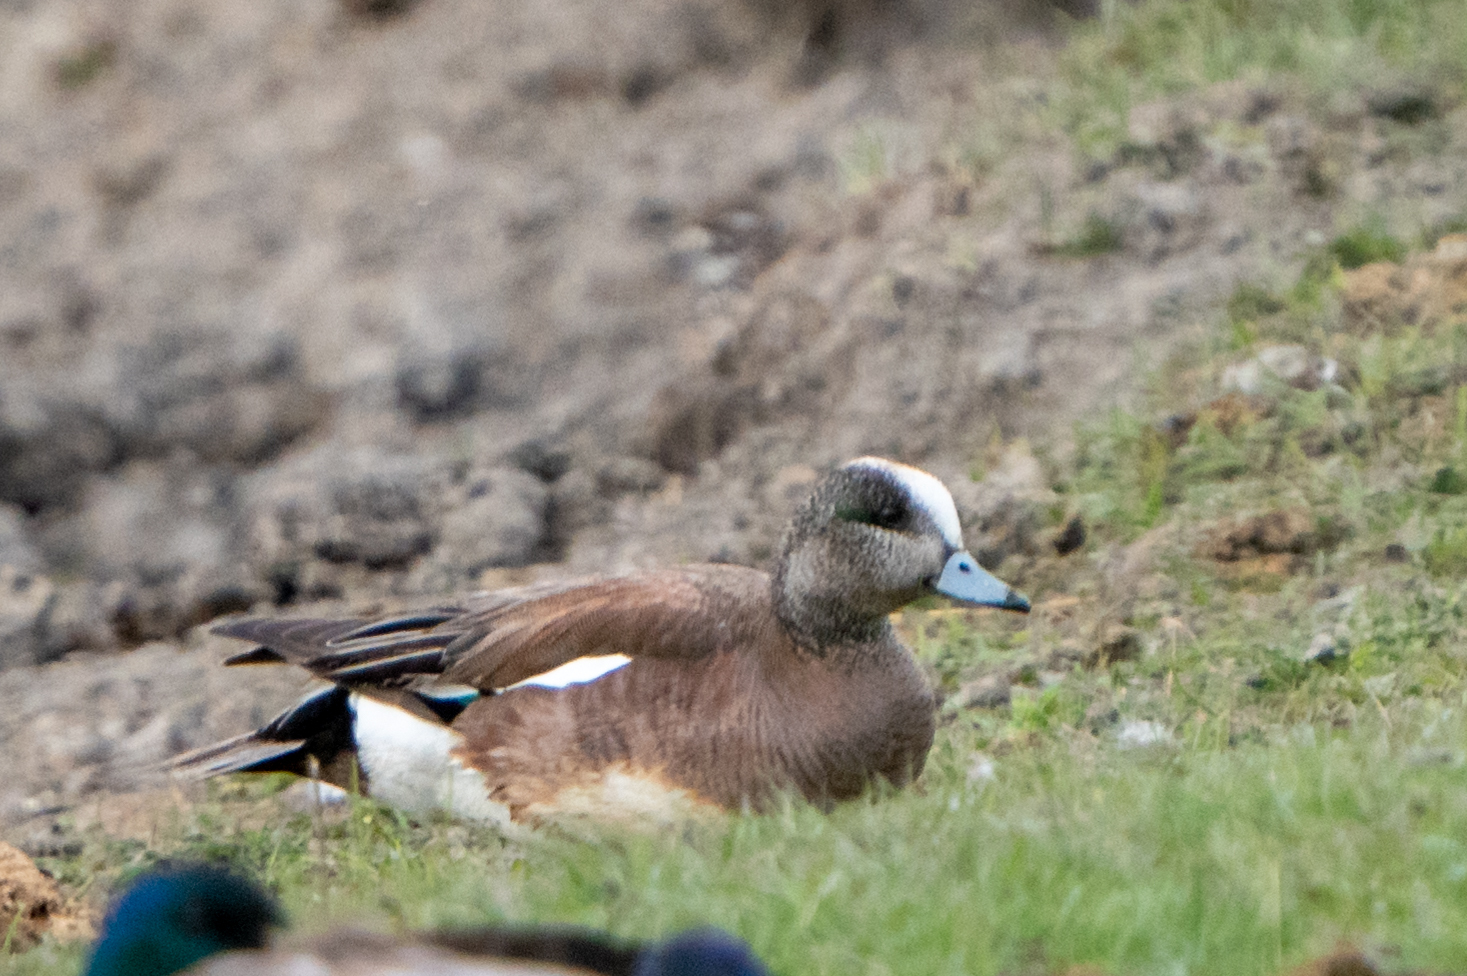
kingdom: Animalia
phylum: Chordata
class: Aves
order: Anseriformes
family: Anatidae
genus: Mareca
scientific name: Mareca americana
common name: American wigeon
